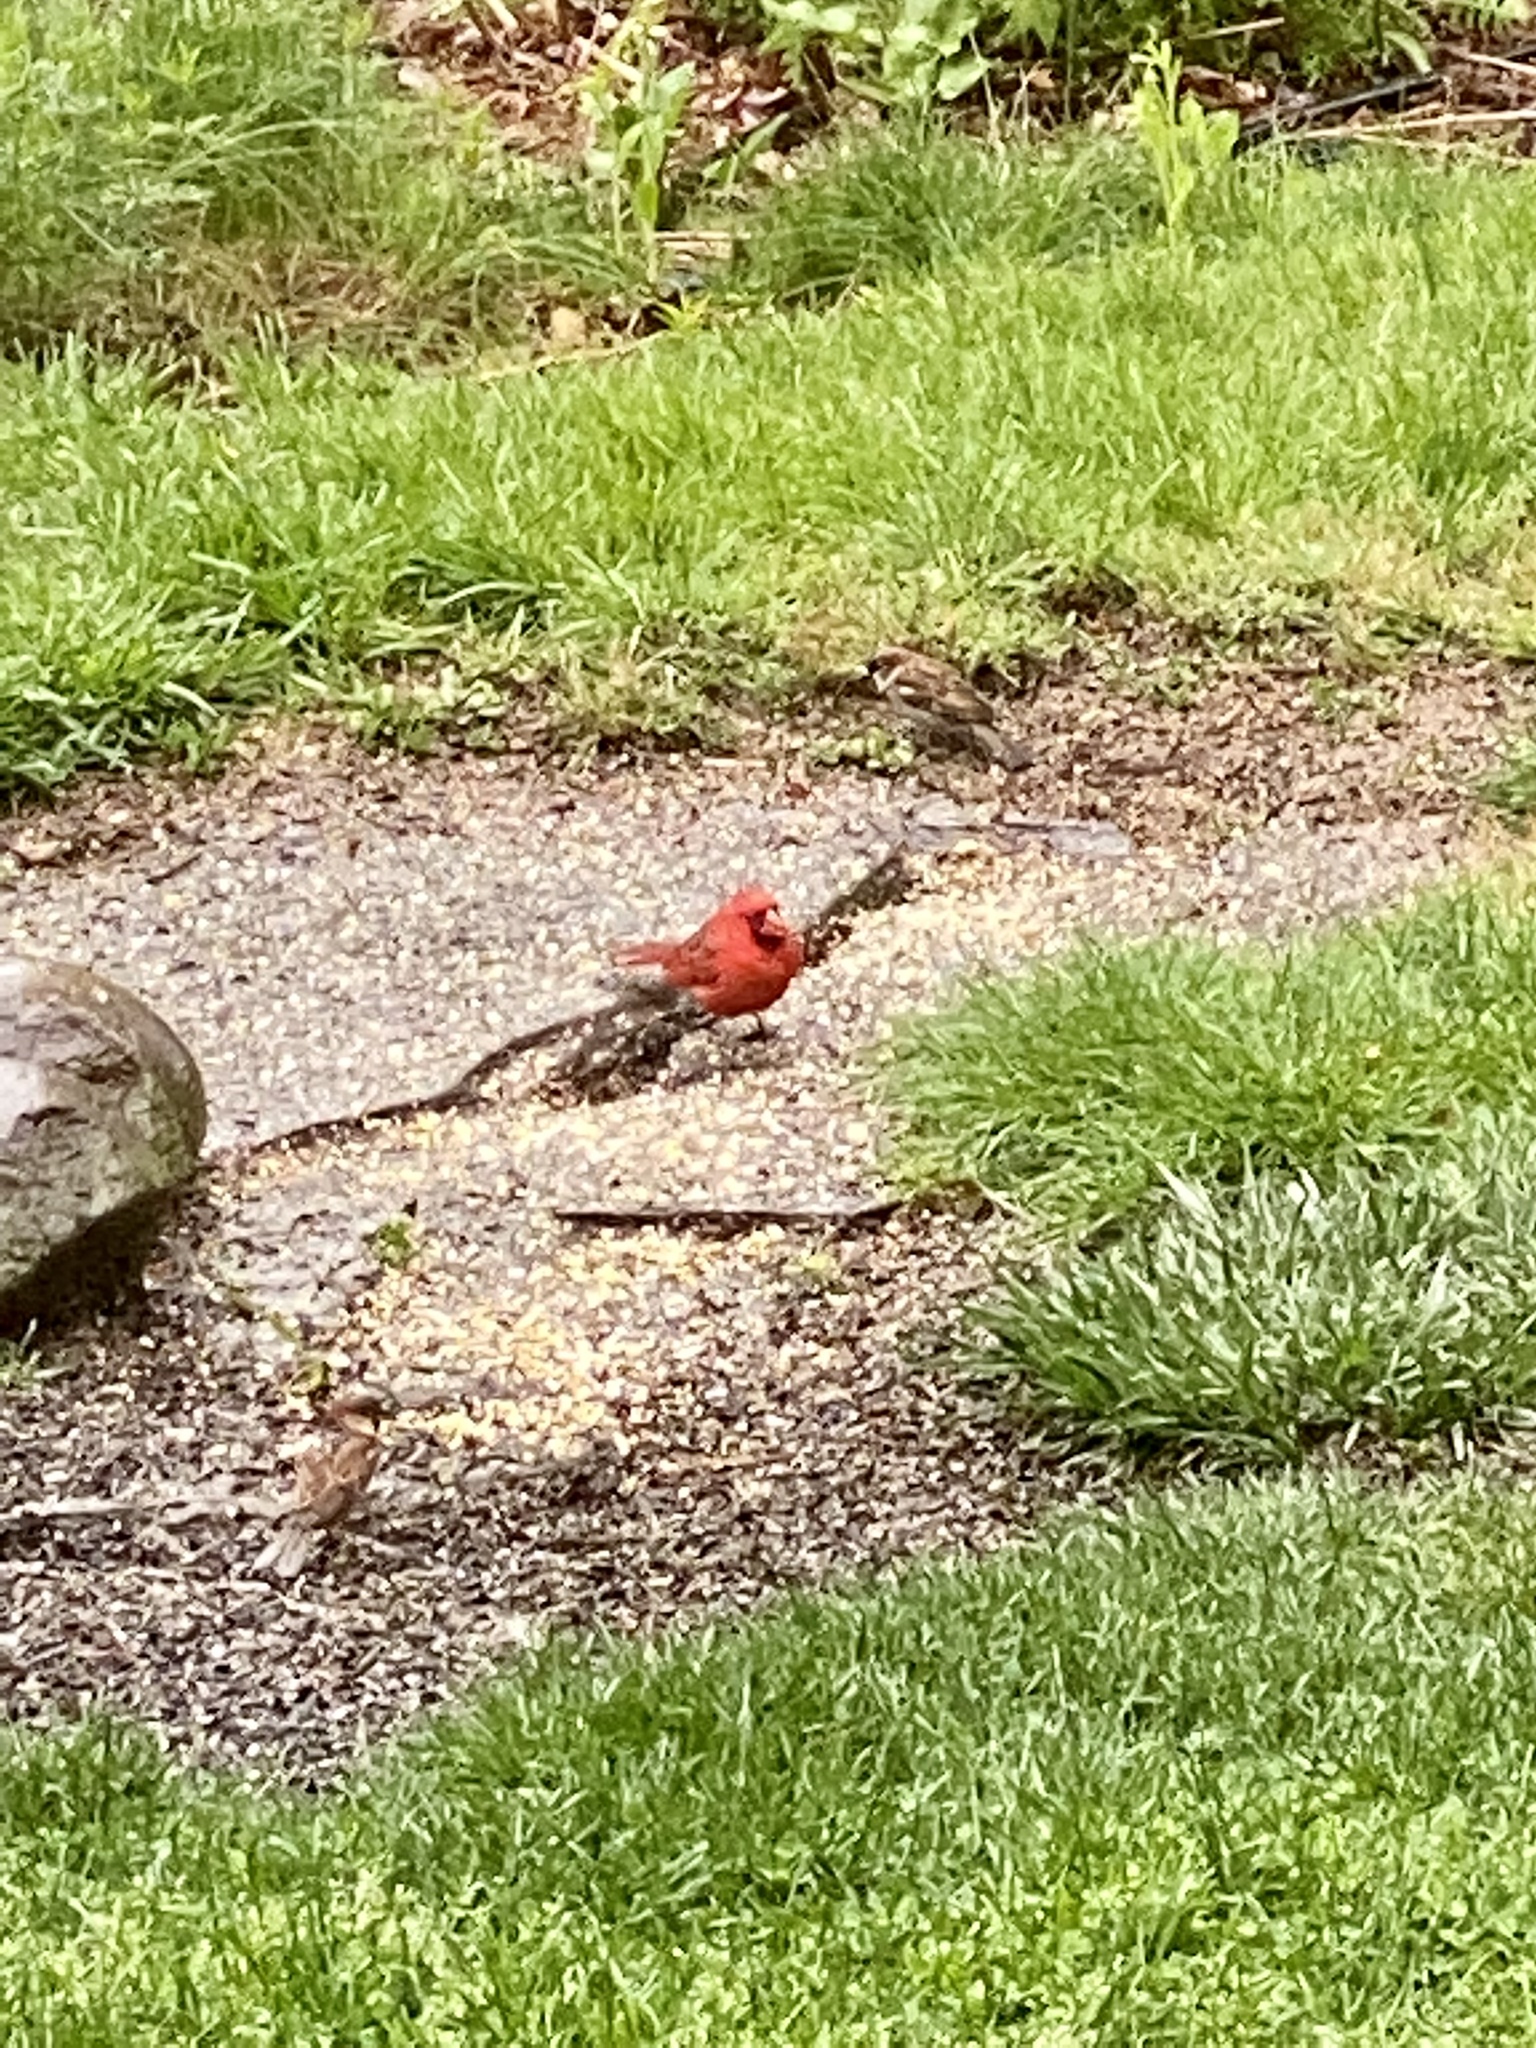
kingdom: Animalia
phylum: Chordata
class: Aves
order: Passeriformes
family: Cardinalidae
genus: Cardinalis
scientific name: Cardinalis cardinalis
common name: Northern cardinal
